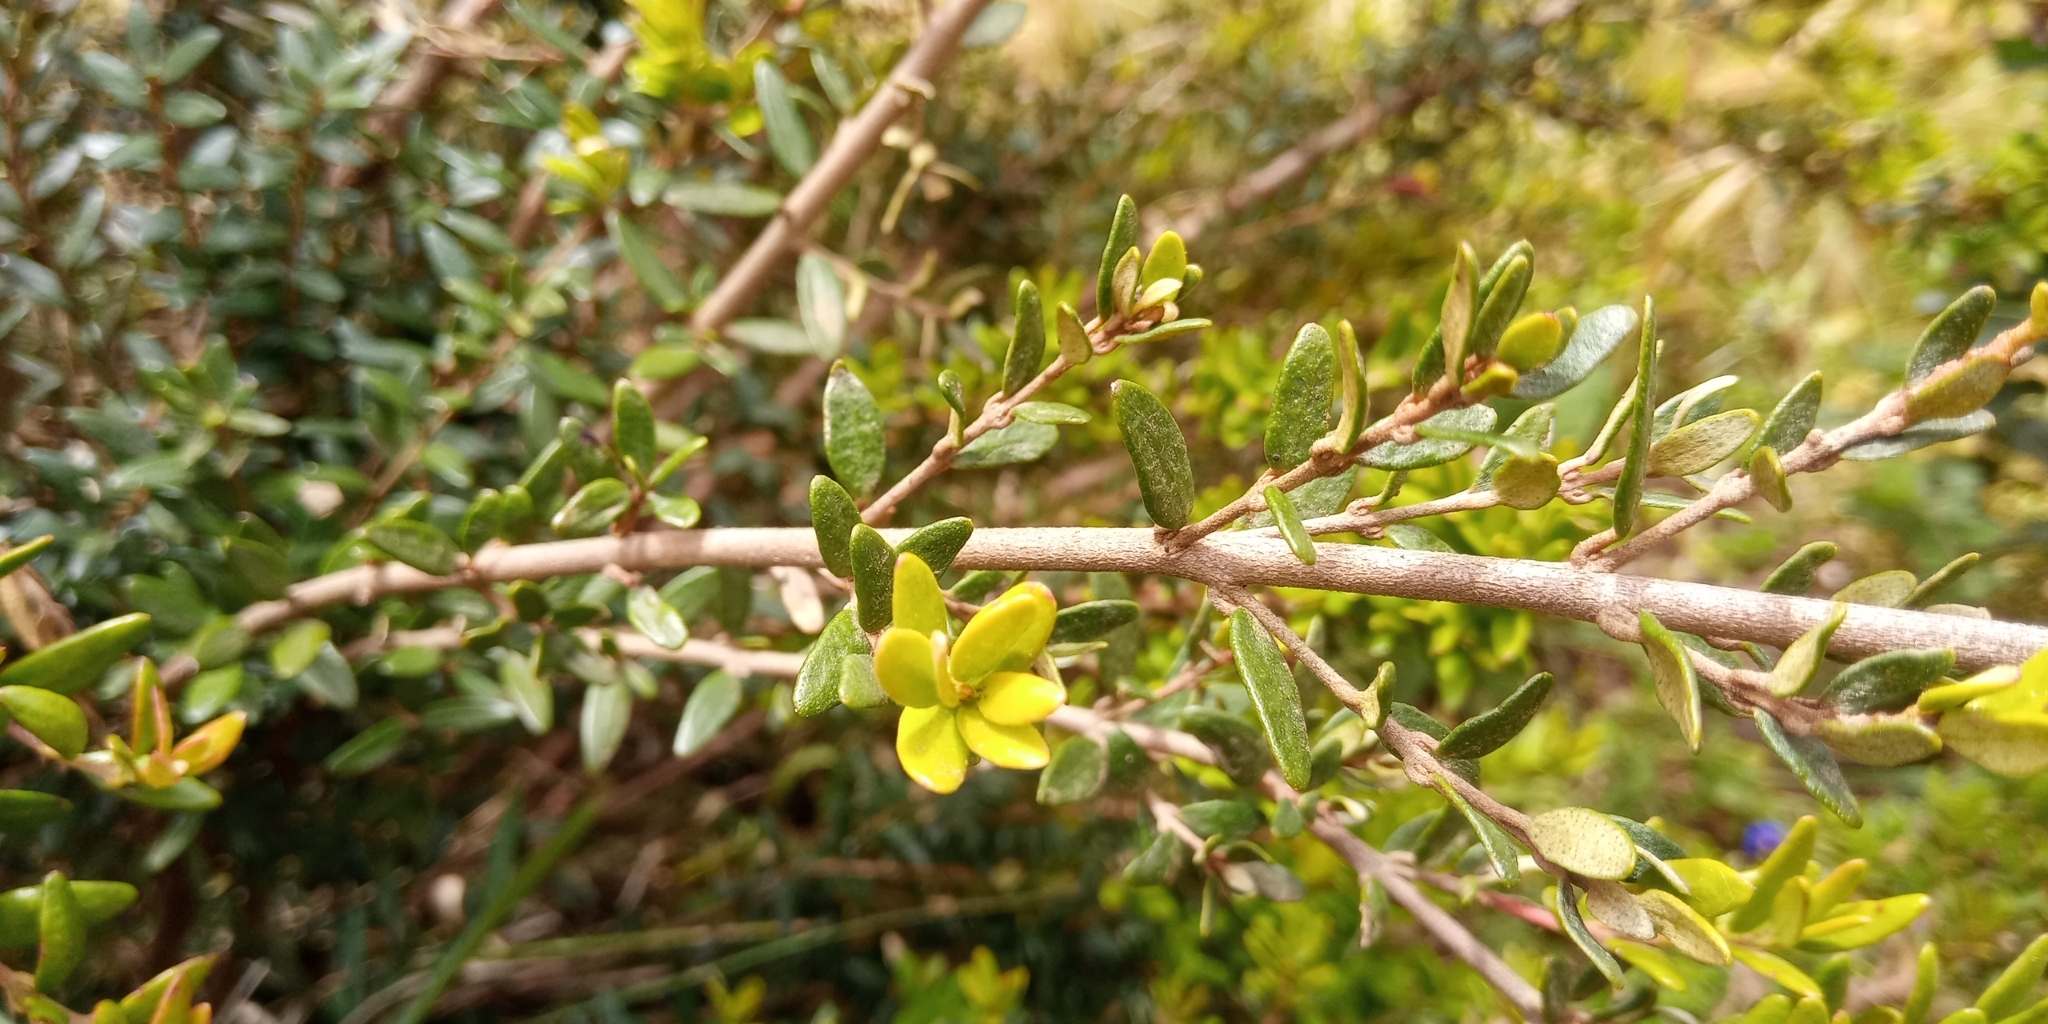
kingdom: Plantae
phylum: Tracheophyta
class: Magnoliopsida
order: Myrtales
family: Myrtaceae
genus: Myrceugenia
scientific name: Myrceugenia rufa
